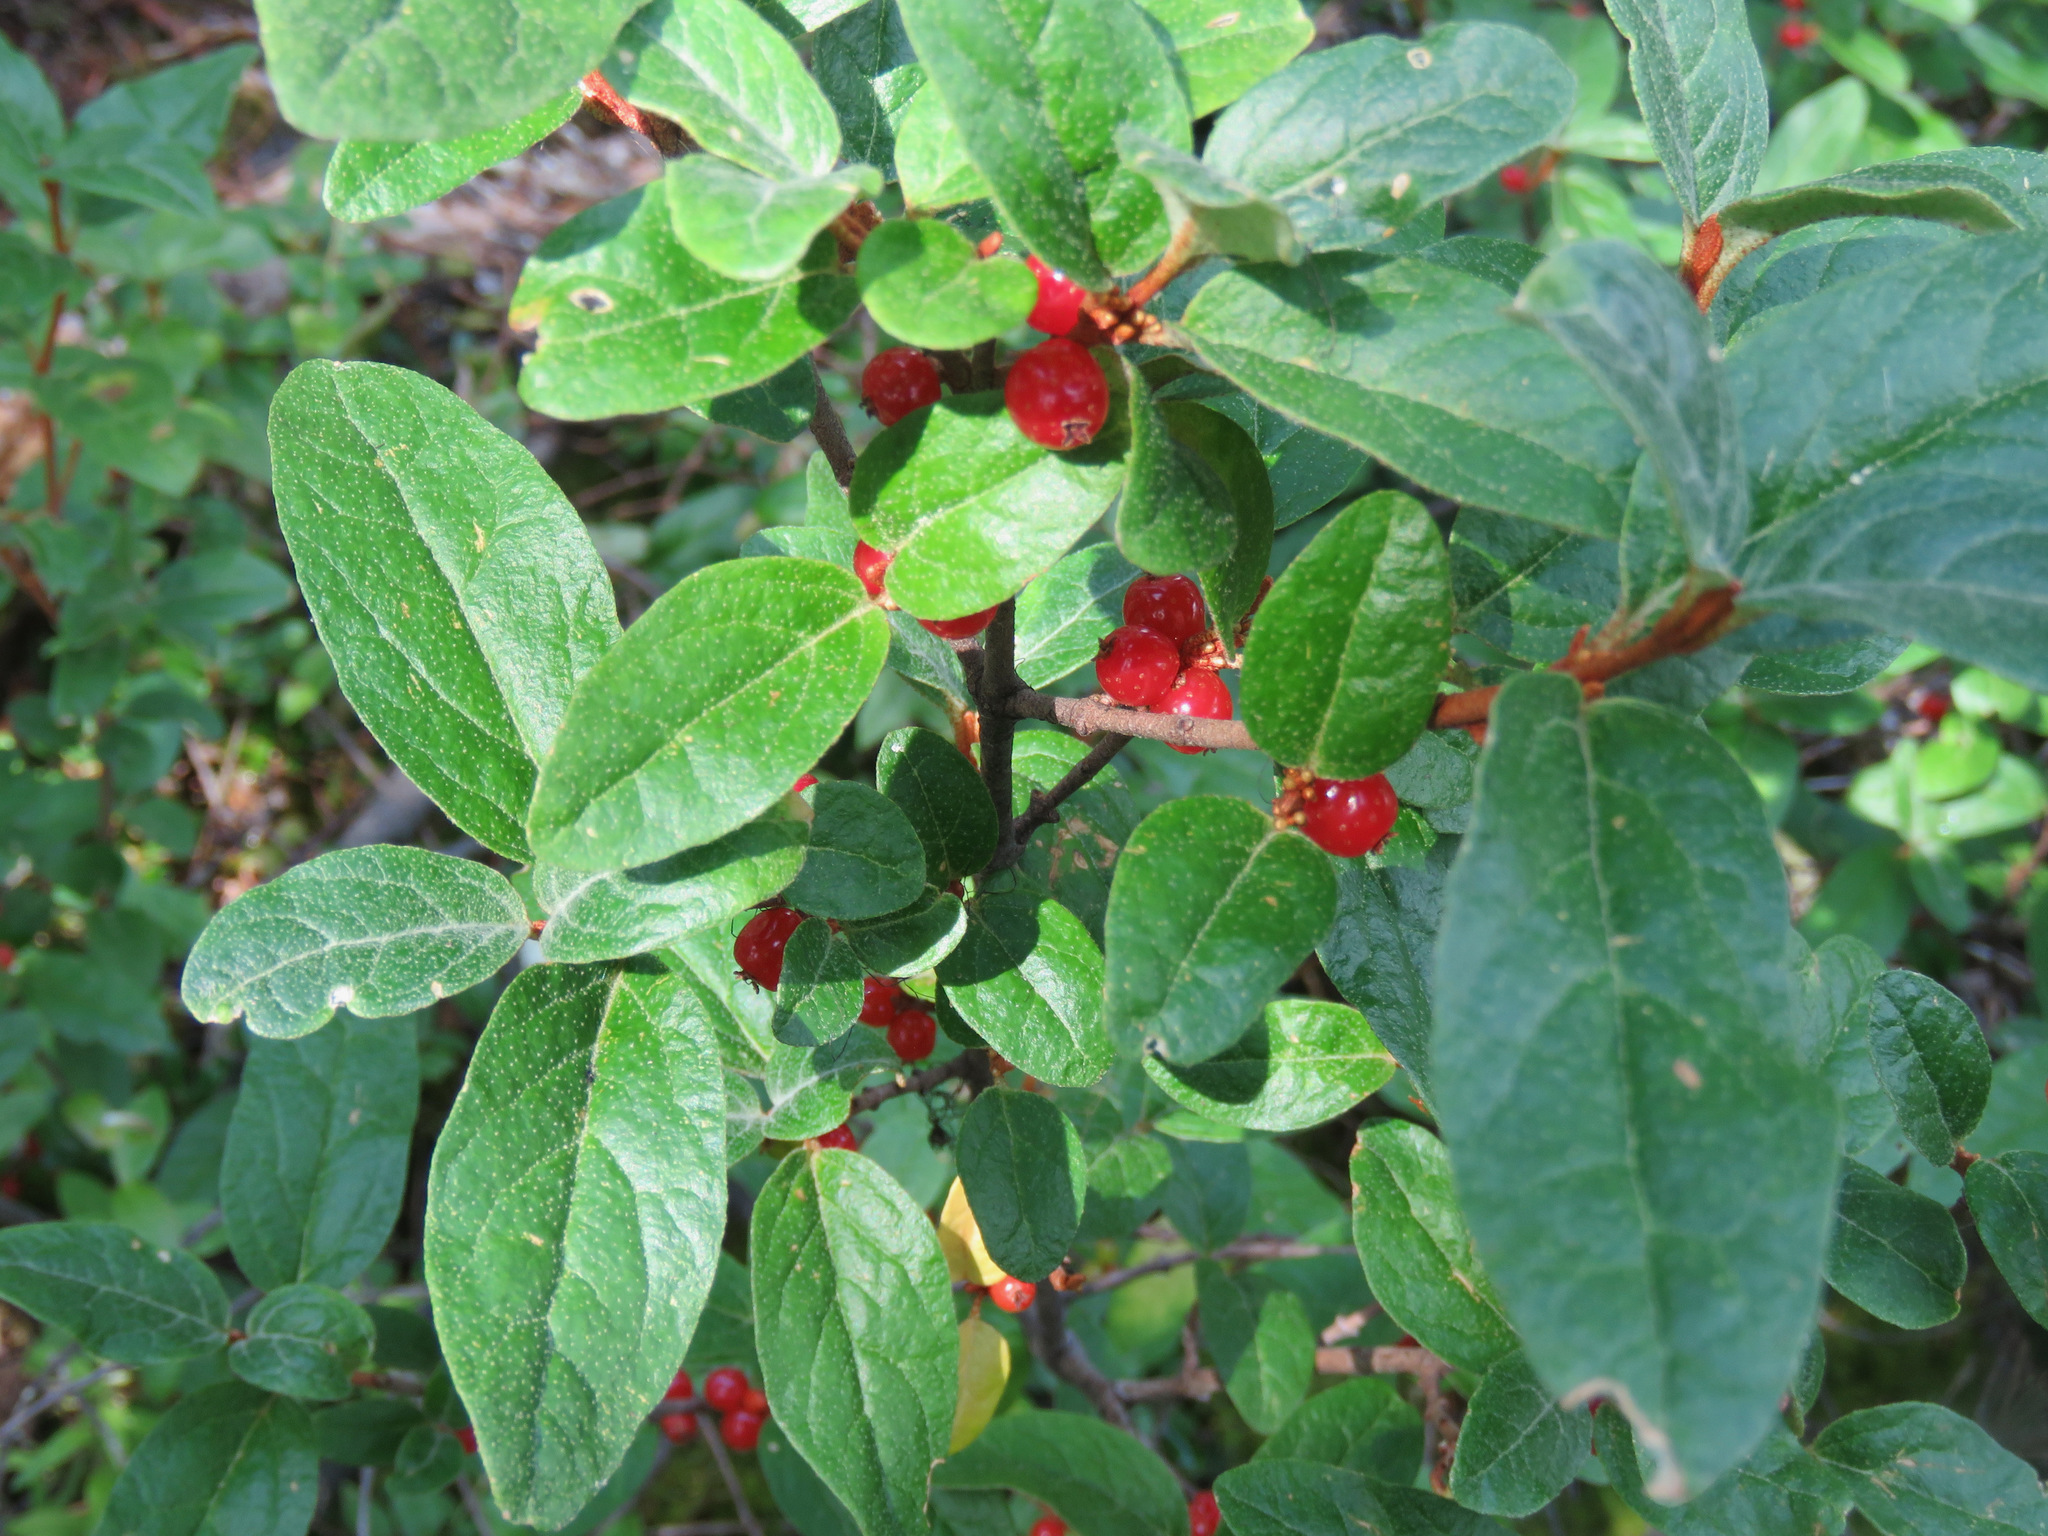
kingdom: Plantae
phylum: Tracheophyta
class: Magnoliopsida
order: Rosales
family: Elaeagnaceae
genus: Shepherdia
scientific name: Shepherdia canadensis
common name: Soapberry
